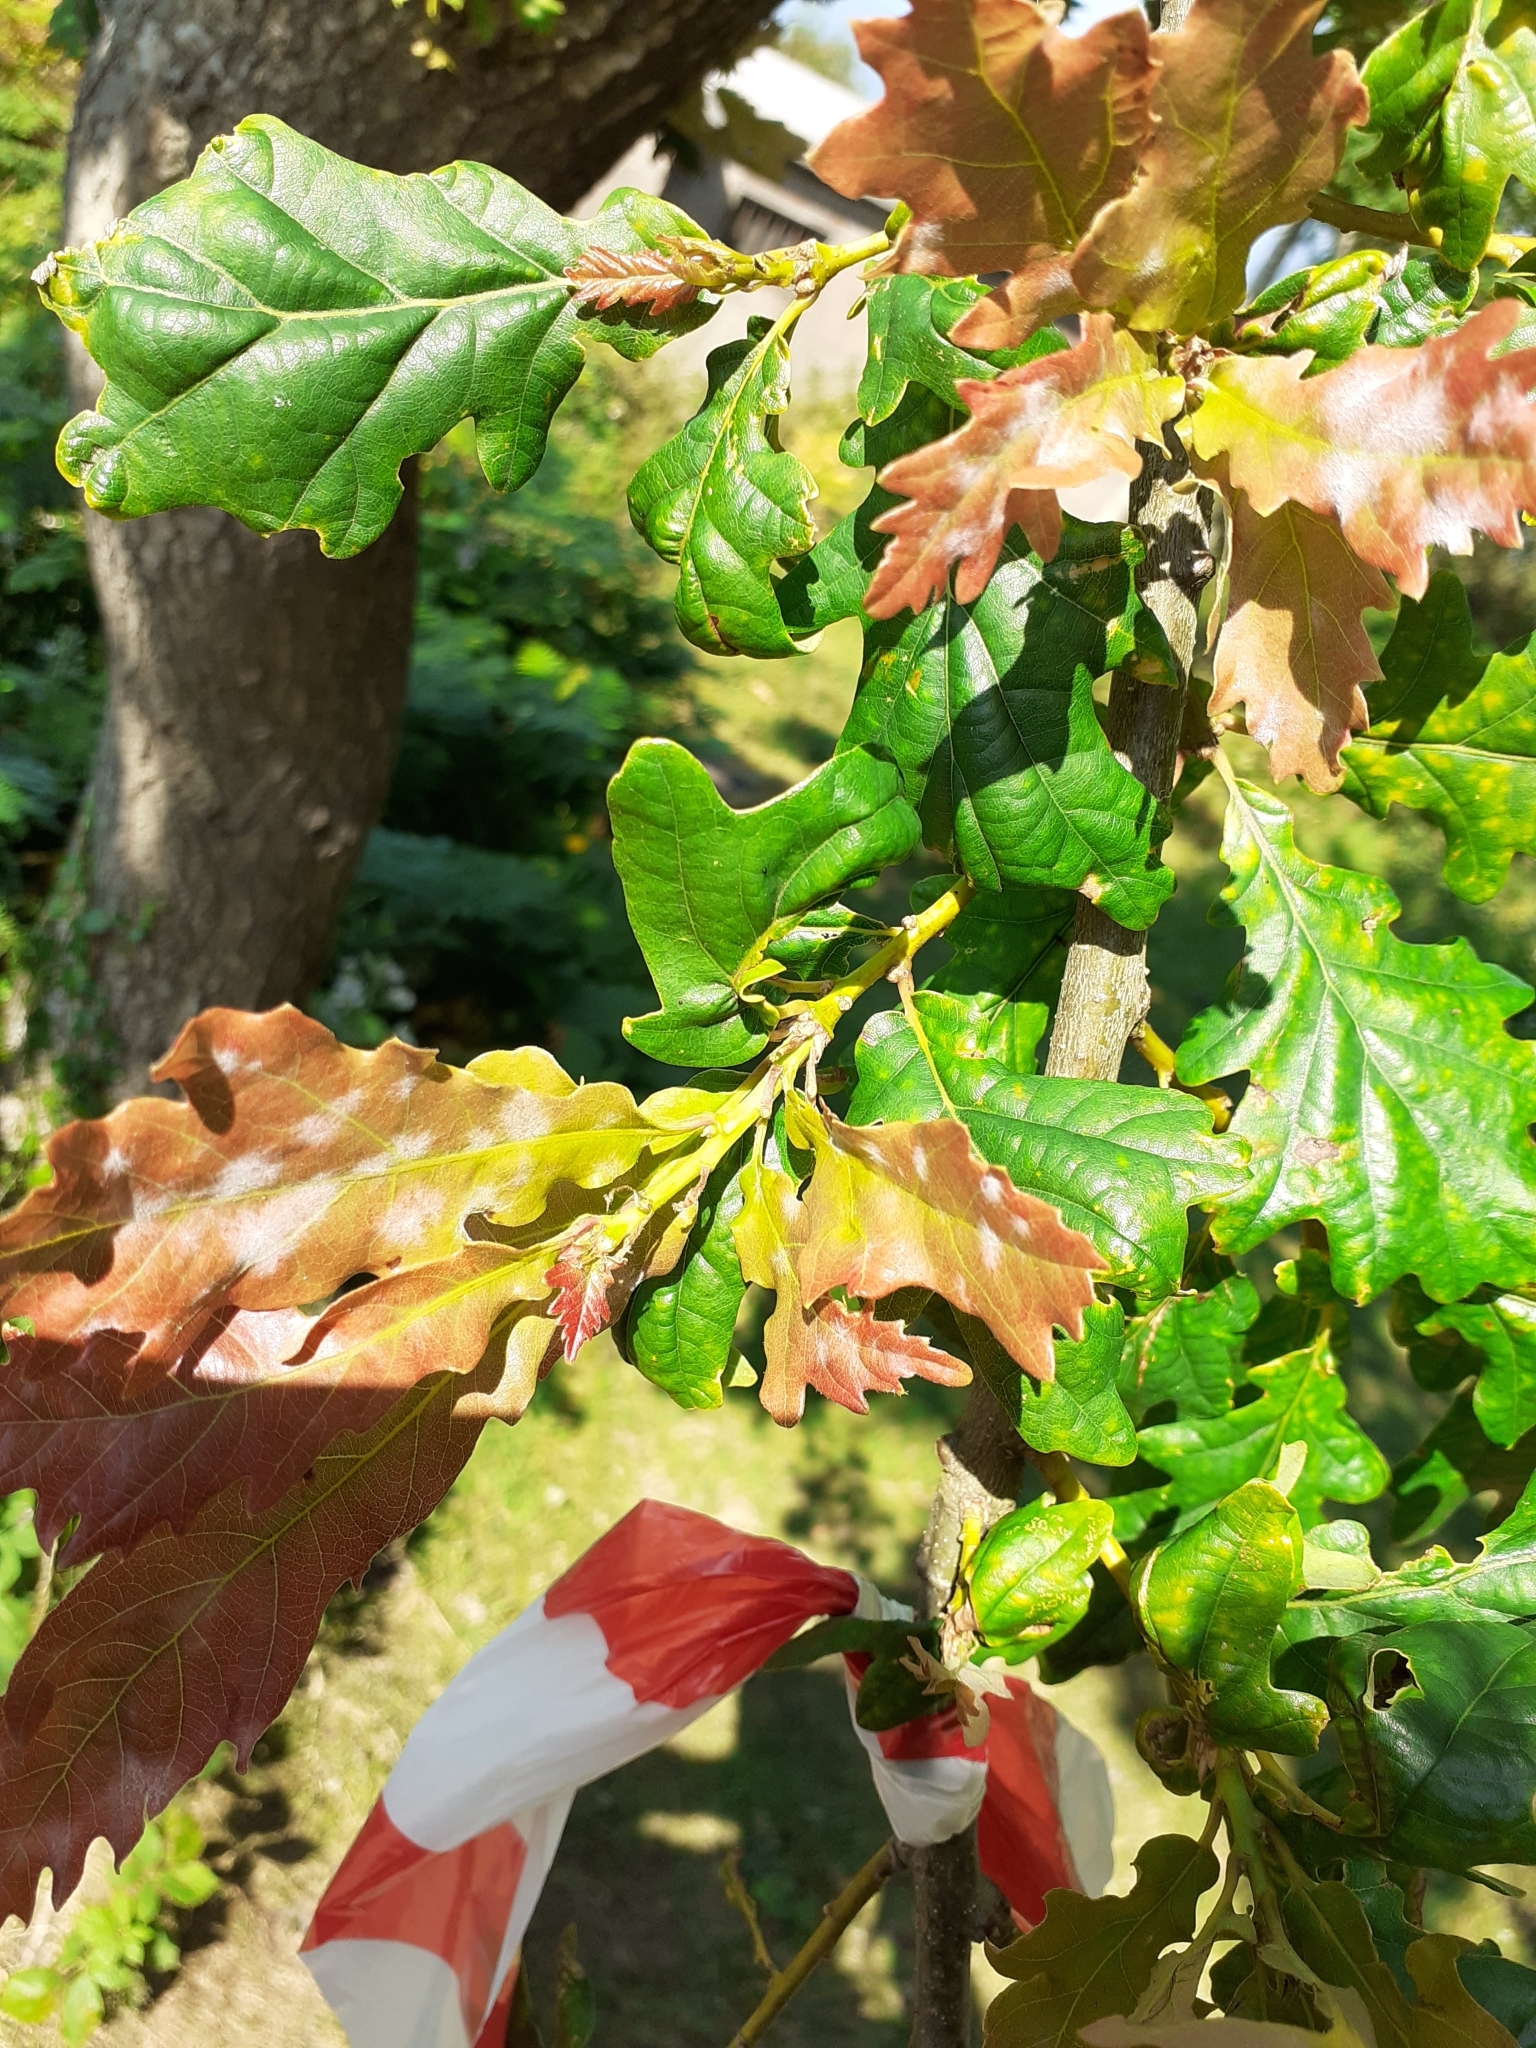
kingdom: Plantae
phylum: Tracheophyta
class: Magnoliopsida
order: Fagales
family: Fagaceae
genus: Quercus
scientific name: Quercus petraea
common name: Sessile oak
